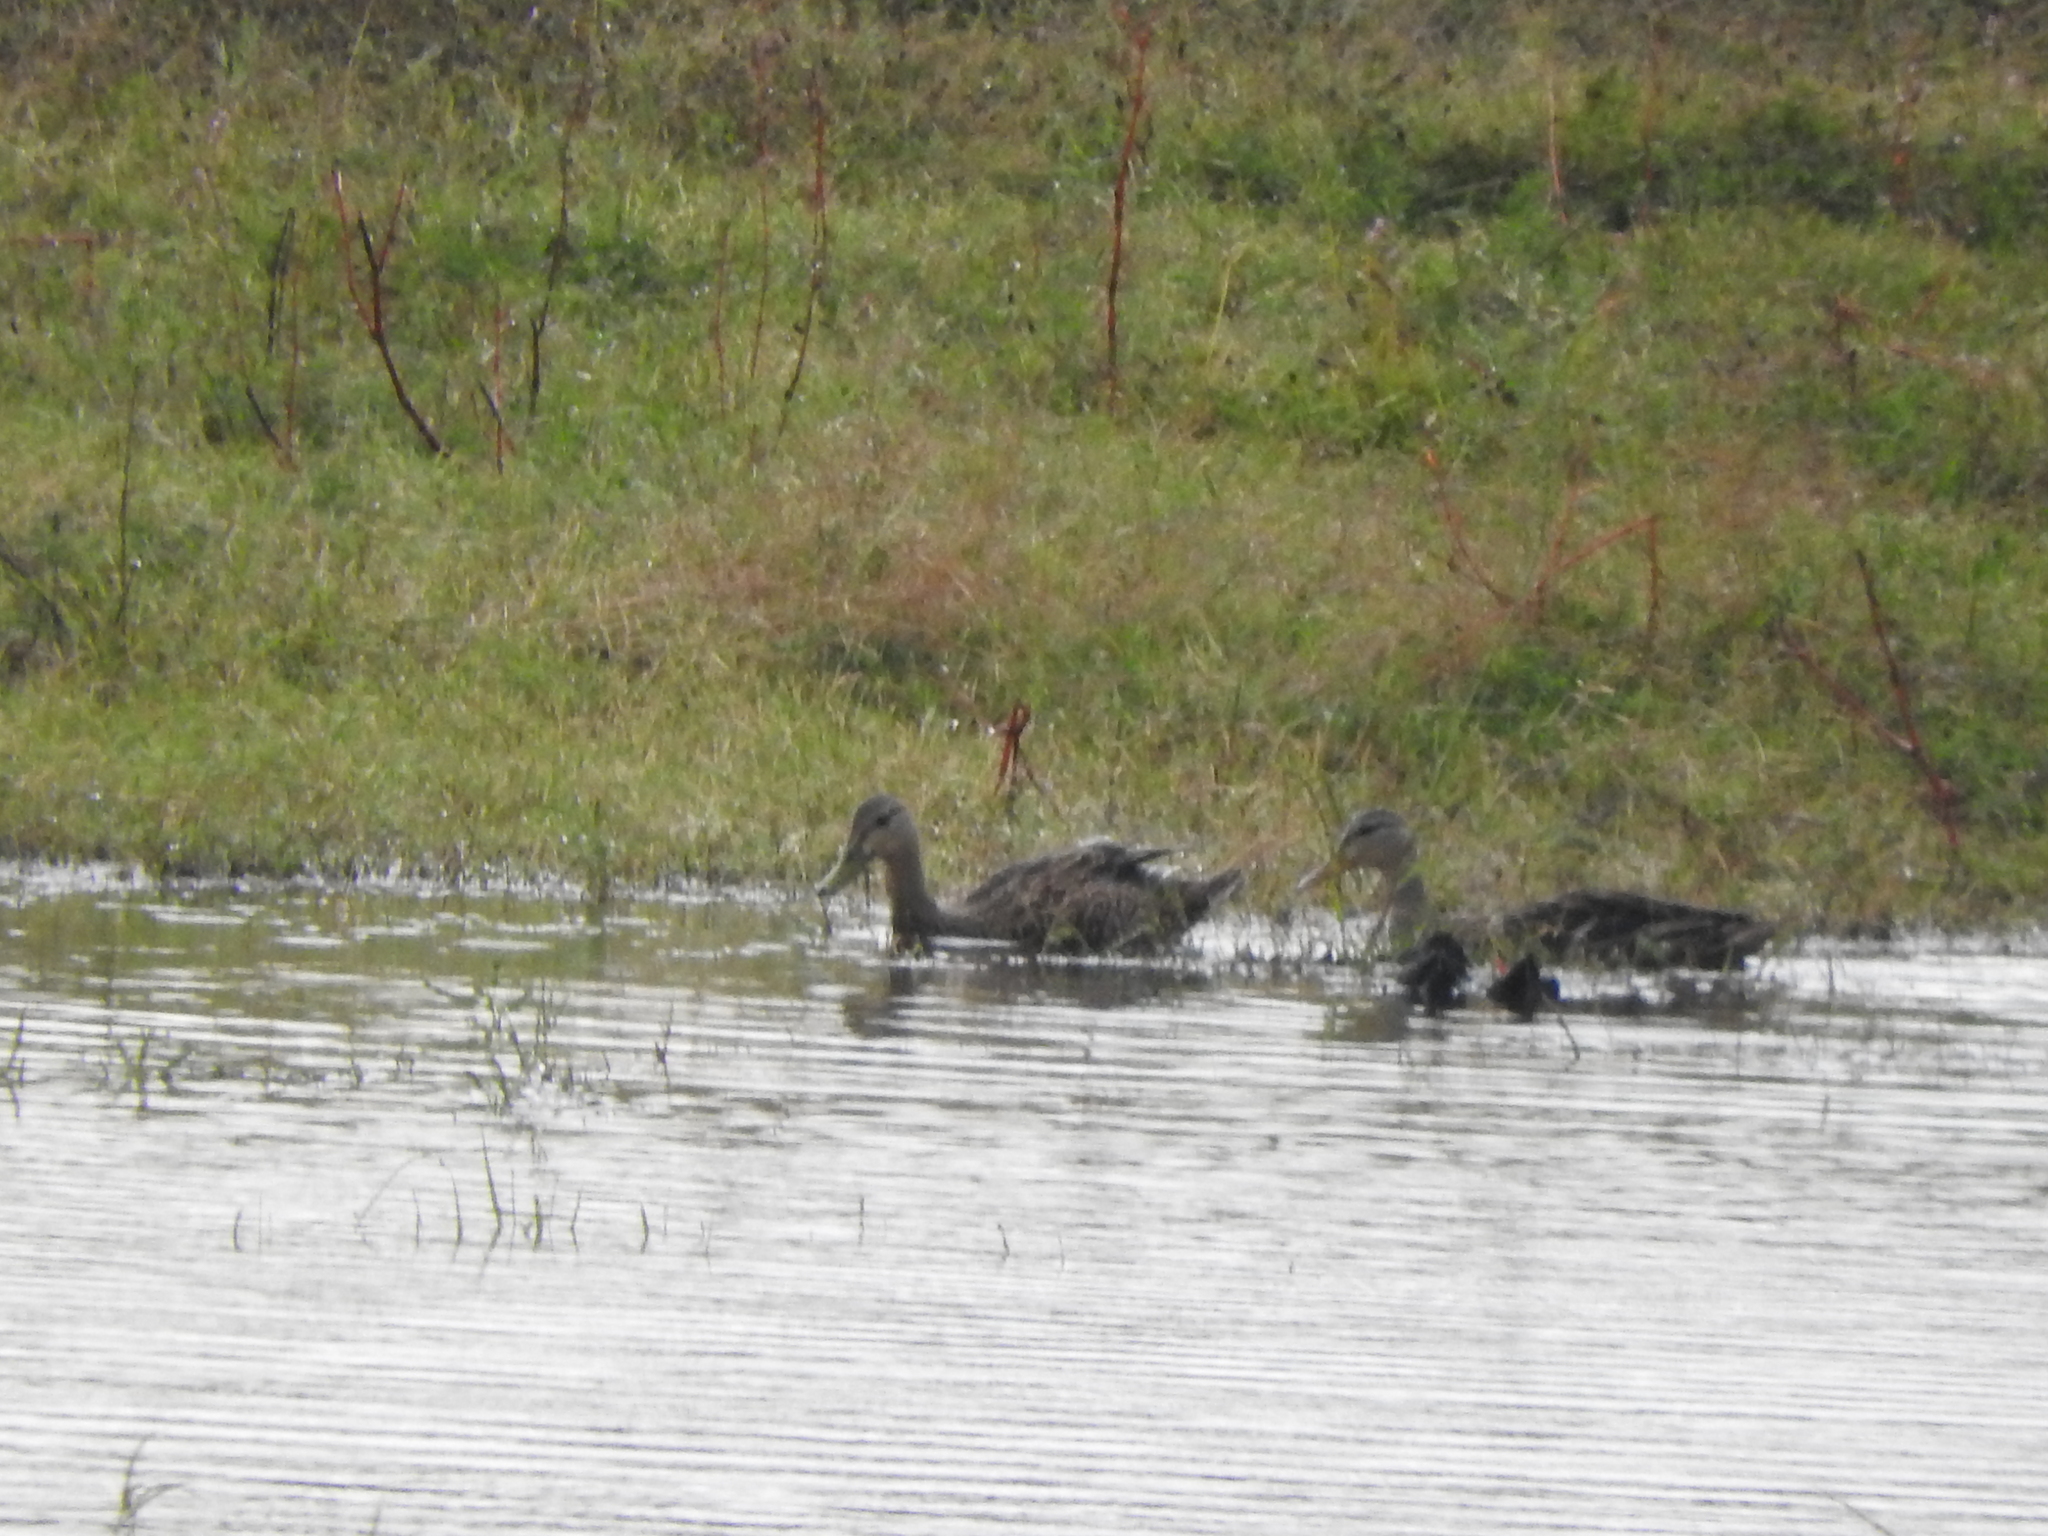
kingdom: Animalia
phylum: Chordata
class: Aves
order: Anseriformes
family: Anatidae
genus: Anas
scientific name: Anas diazi
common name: Mexican duck
